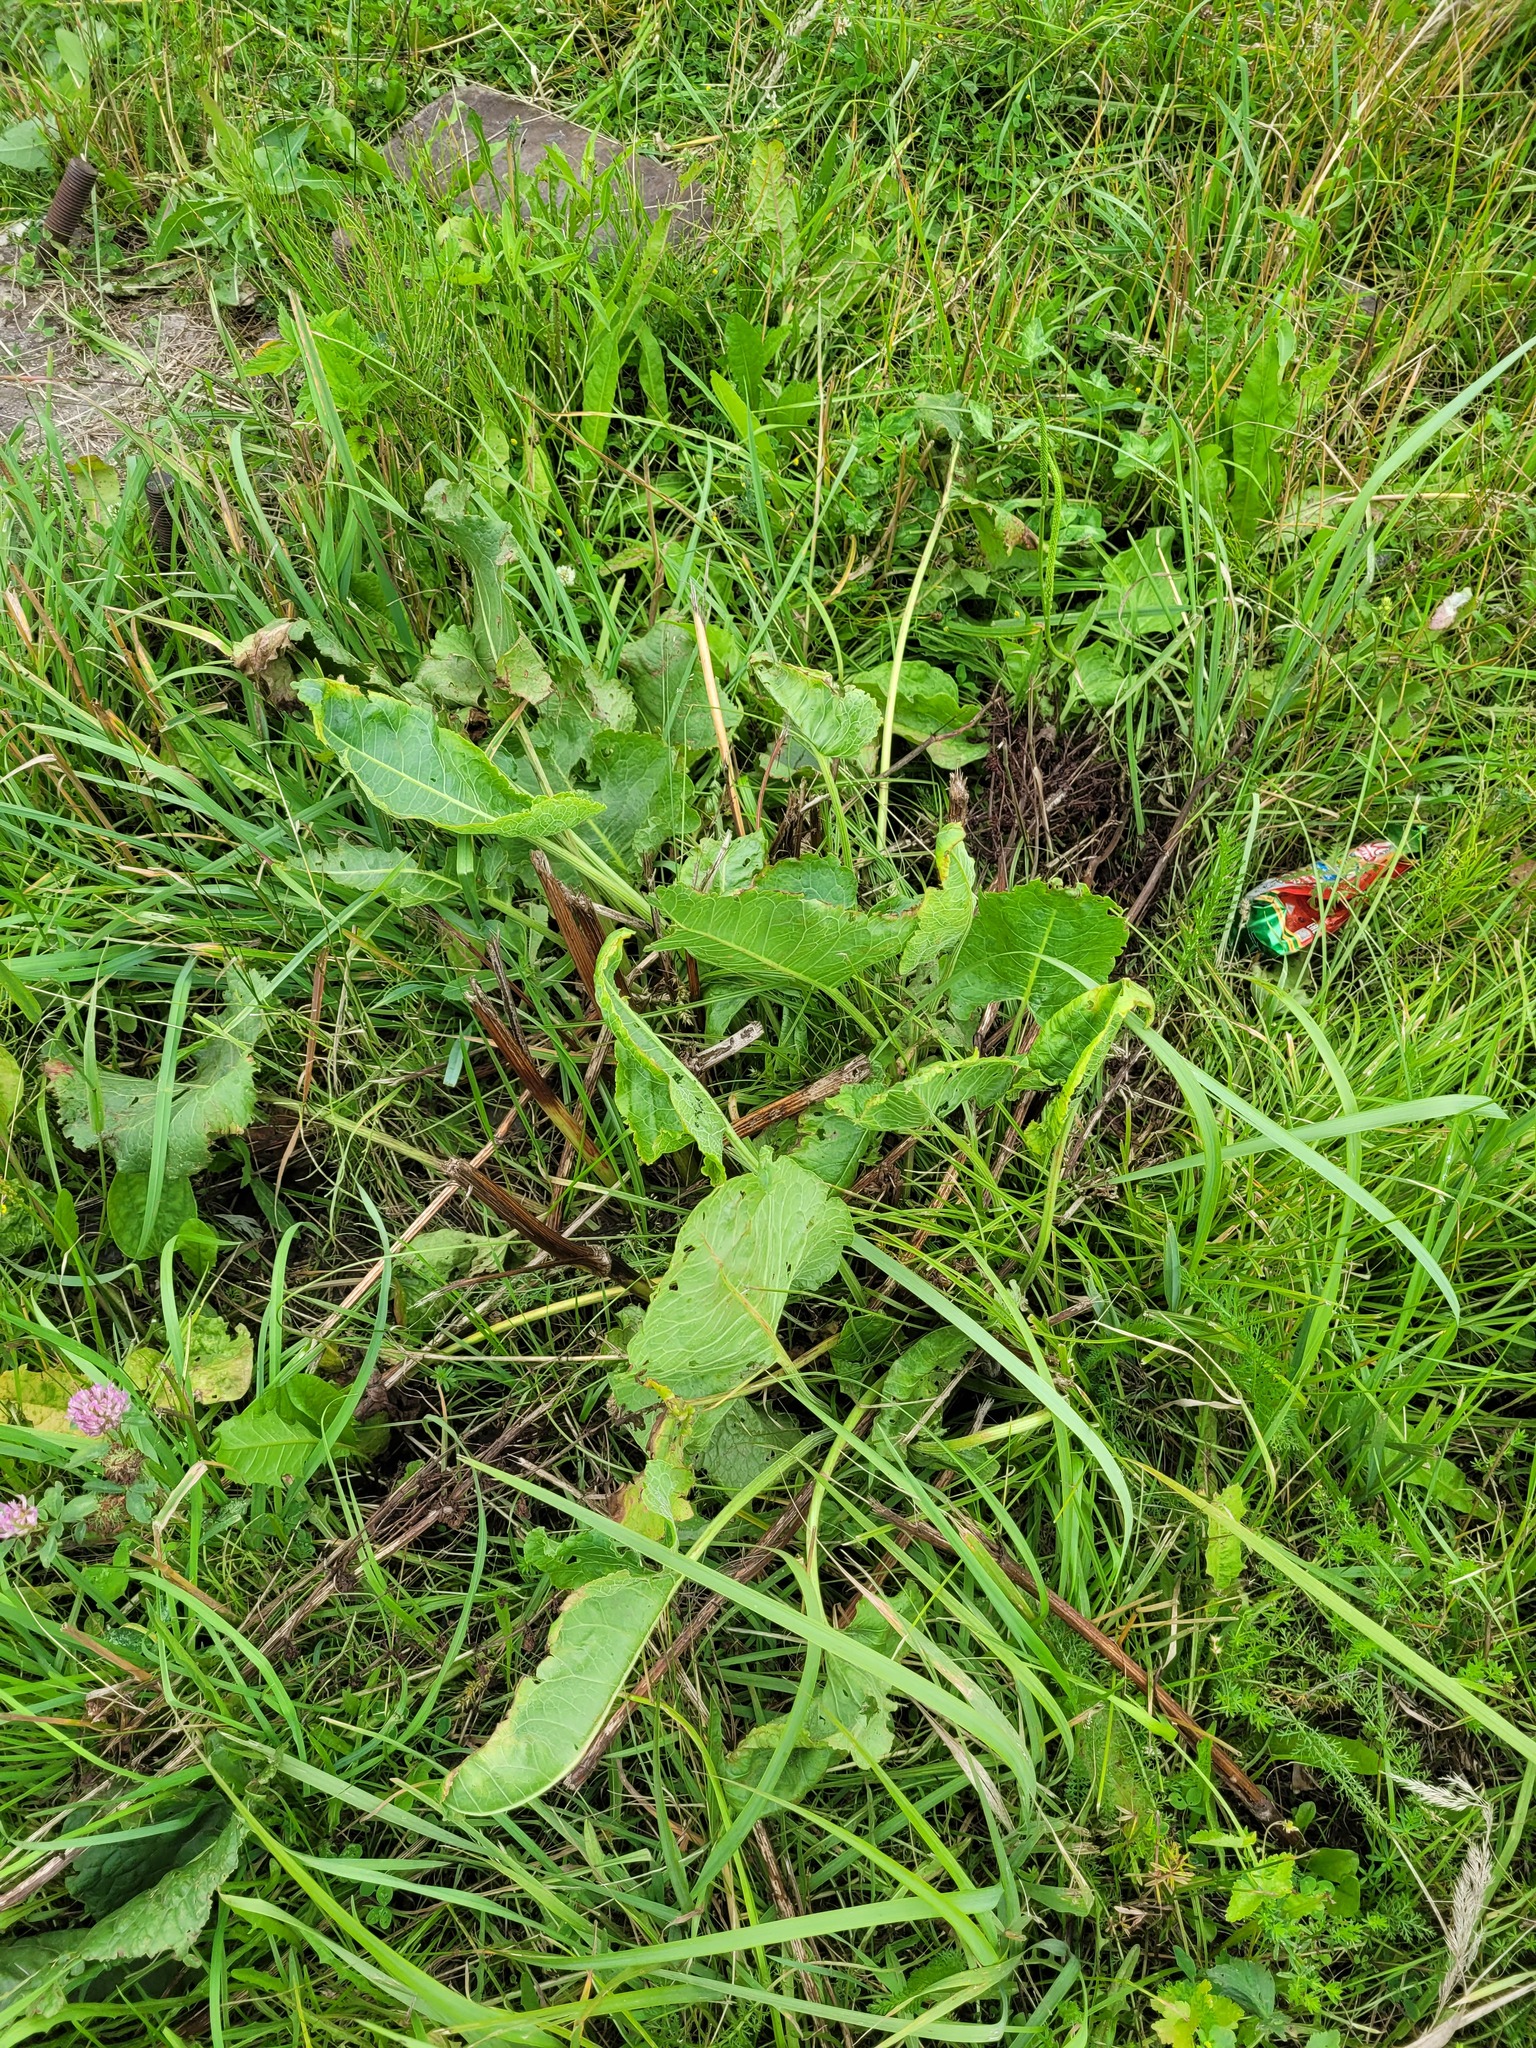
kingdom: Plantae
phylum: Tracheophyta
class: Magnoliopsida
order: Caryophyllales
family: Polygonaceae
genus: Rumex
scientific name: Rumex confertus
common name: Russian dock
